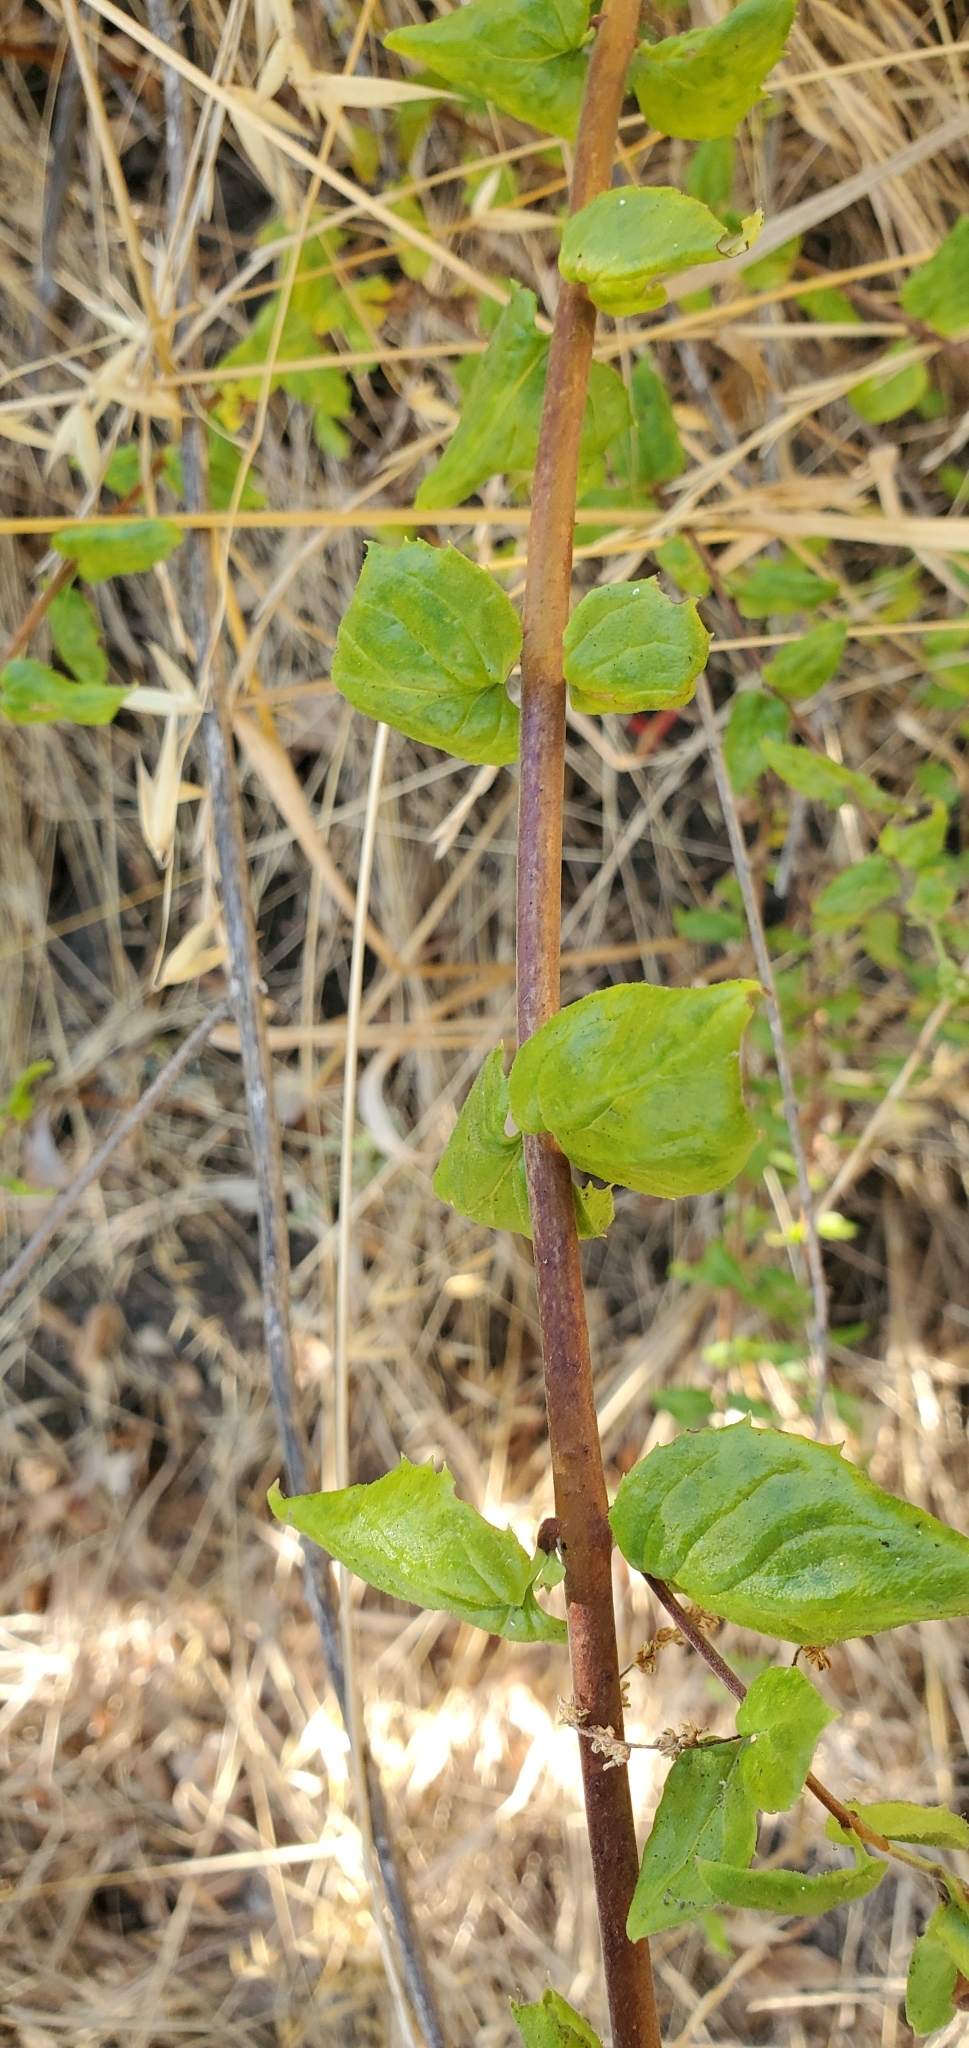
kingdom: Plantae
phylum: Tracheophyta
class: Magnoliopsida
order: Lamiales
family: Plantaginaceae
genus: Keckiella
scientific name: Keckiella cordifolia
